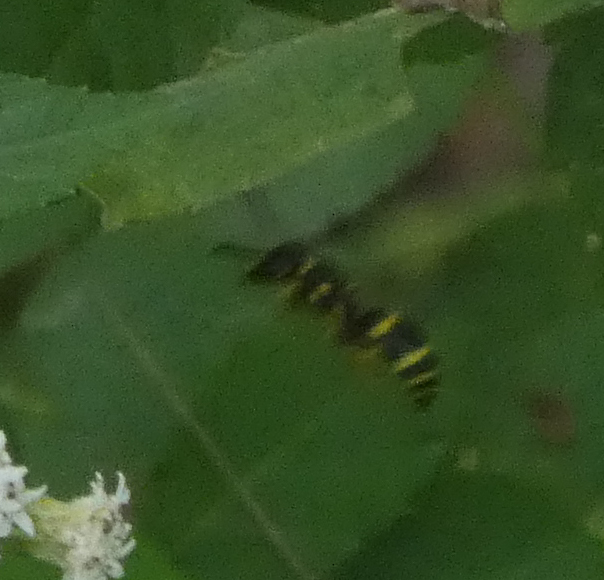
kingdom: Animalia
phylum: Arthropoda
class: Insecta
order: Hymenoptera
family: Vespidae
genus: Ancistrocerus
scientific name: Ancistrocerus
